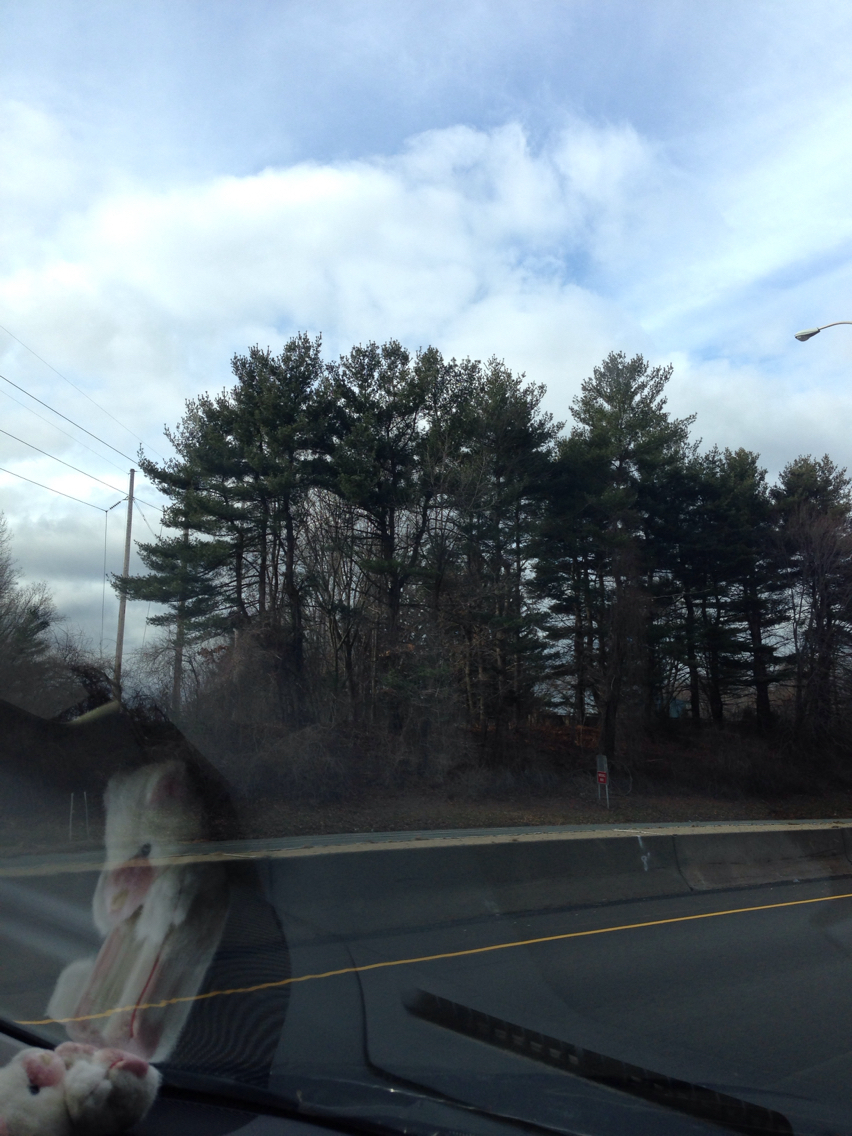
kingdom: Plantae
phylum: Tracheophyta
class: Pinopsida
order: Pinales
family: Pinaceae
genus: Pinus
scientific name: Pinus strobus
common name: Weymouth pine
